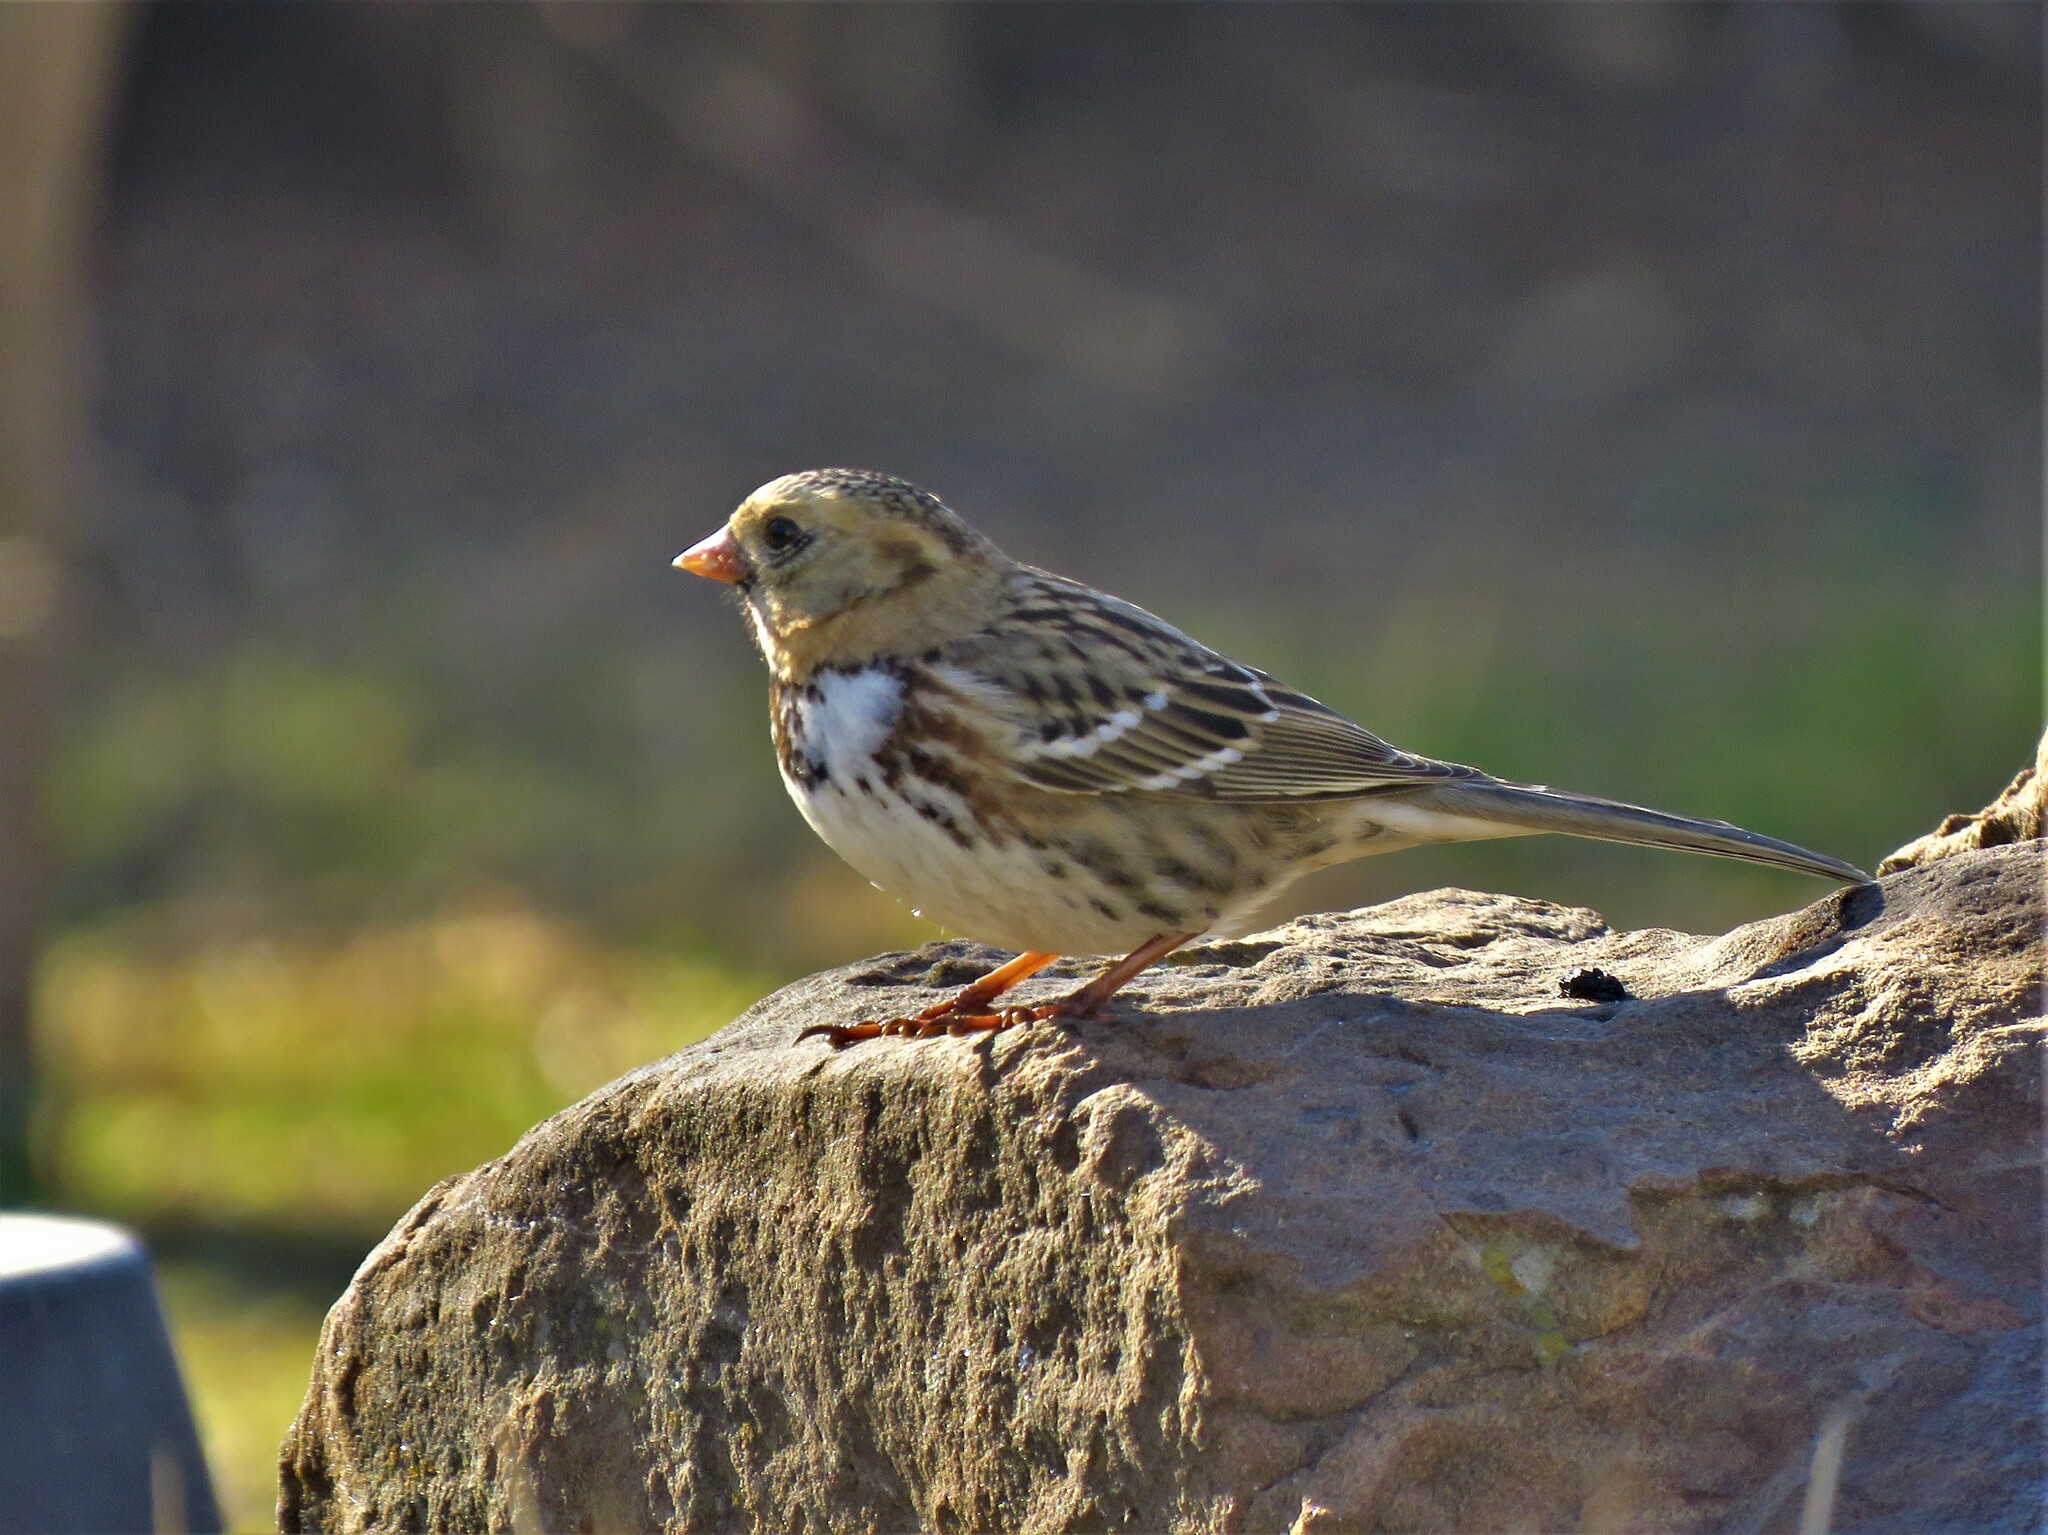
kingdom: Animalia
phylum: Chordata
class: Aves
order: Passeriformes
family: Passerellidae
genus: Zonotrichia
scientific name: Zonotrichia querula
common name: Harris's sparrow
